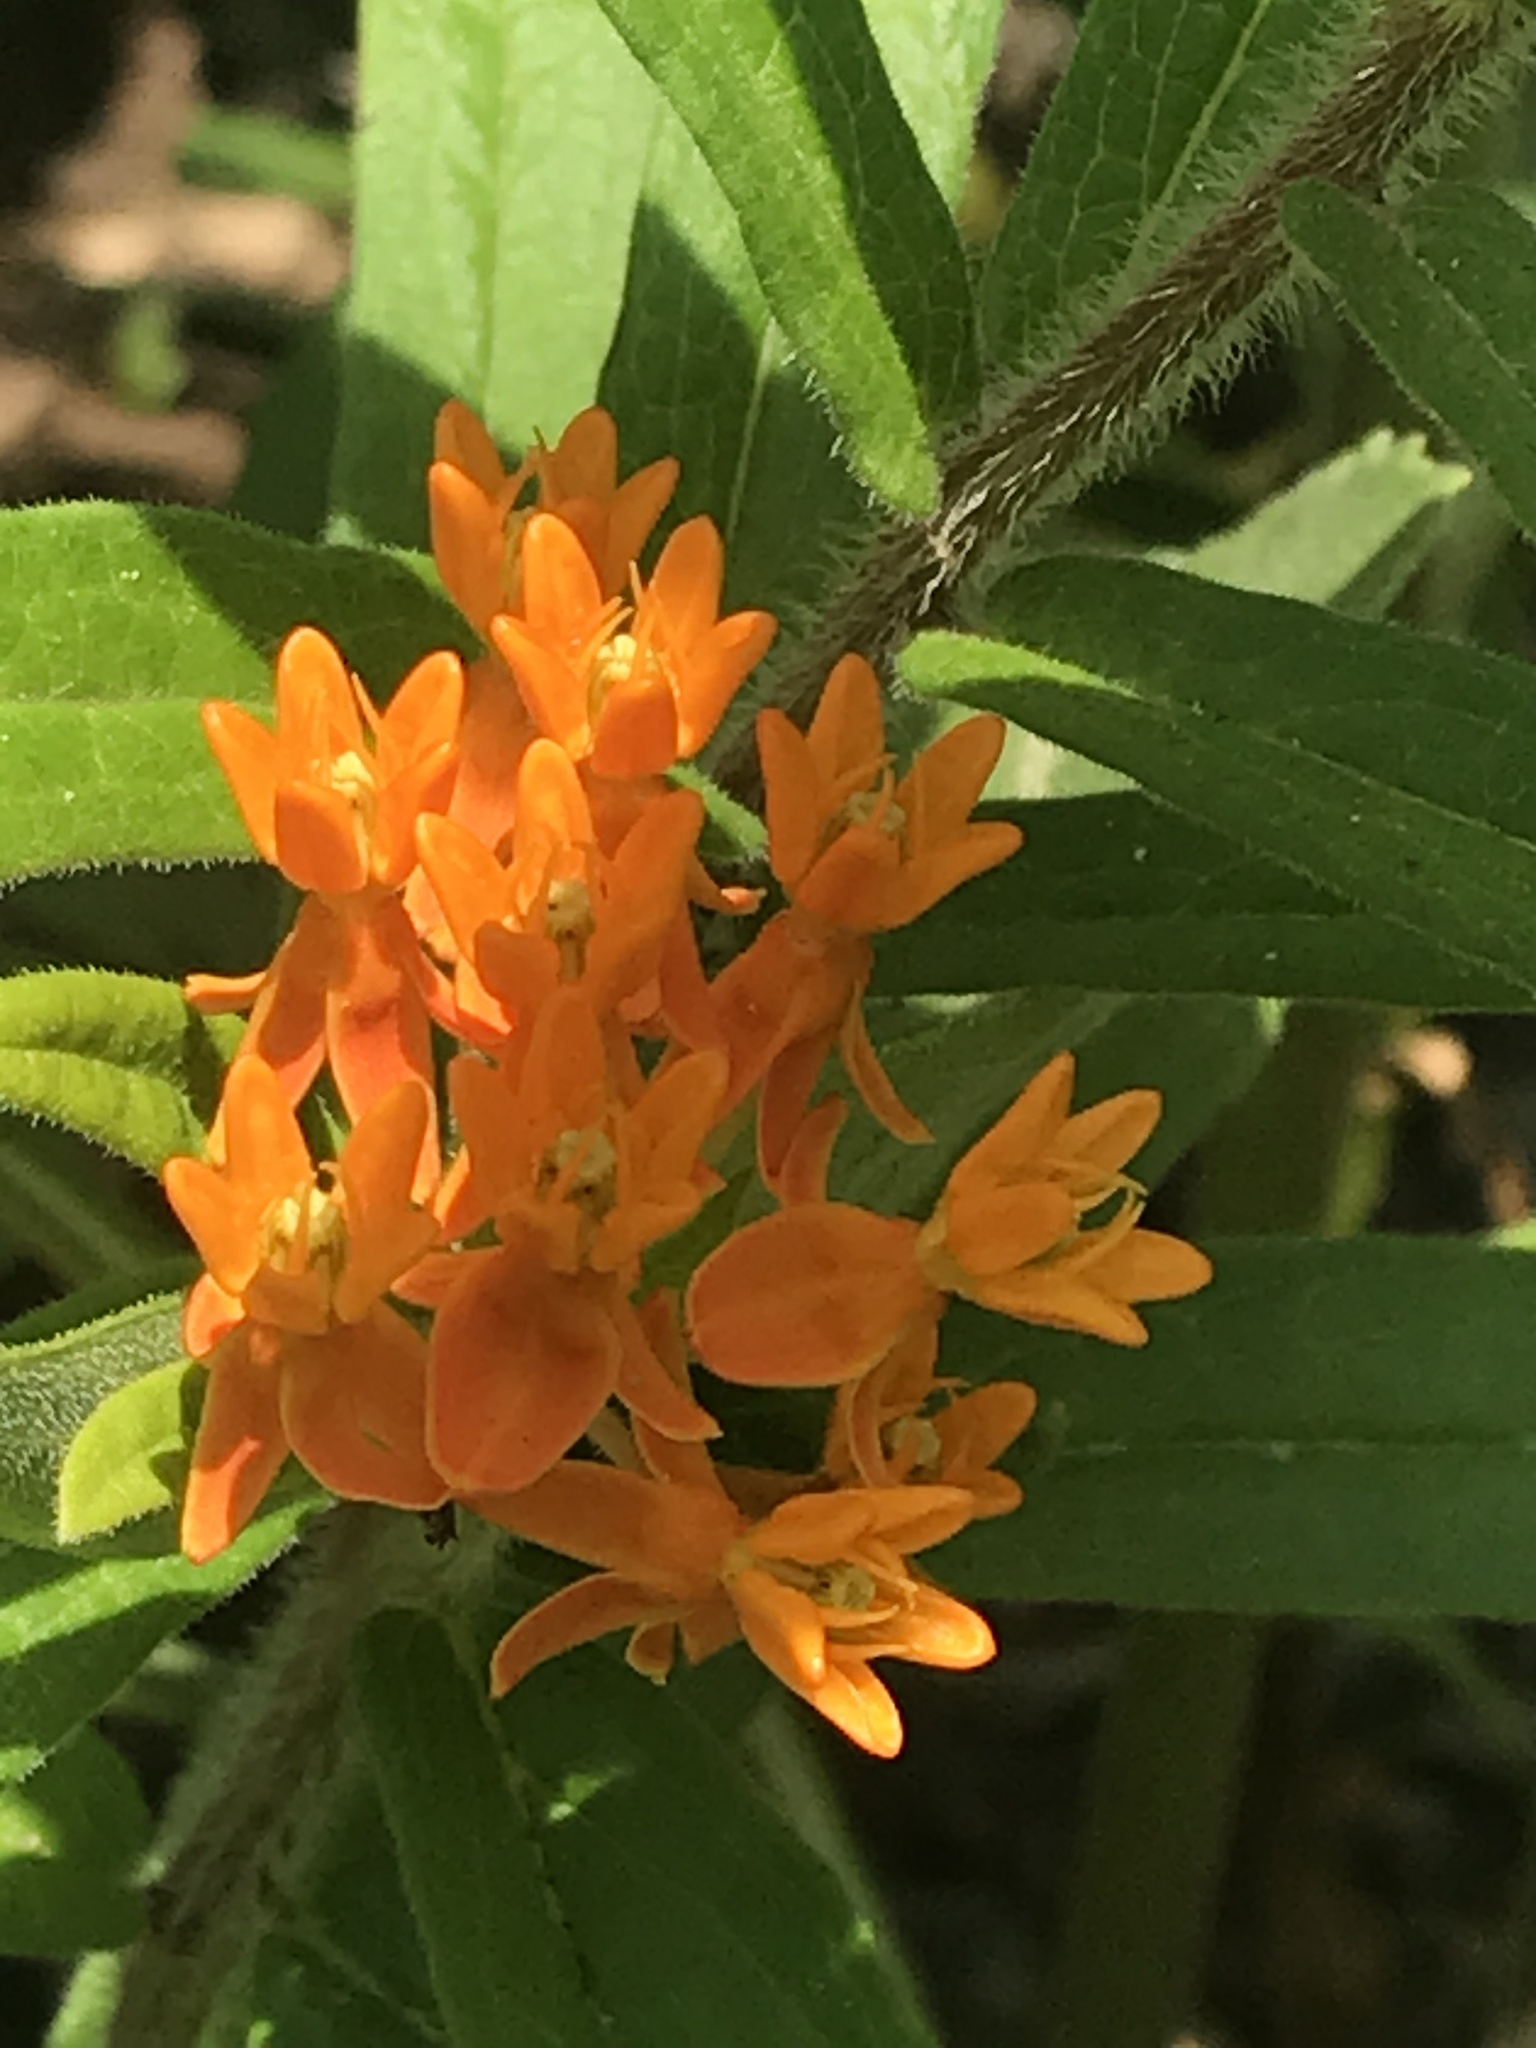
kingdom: Plantae
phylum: Tracheophyta
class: Magnoliopsida
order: Gentianales
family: Apocynaceae
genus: Asclepias
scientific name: Asclepias tuberosa
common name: Butterfly milkweed
